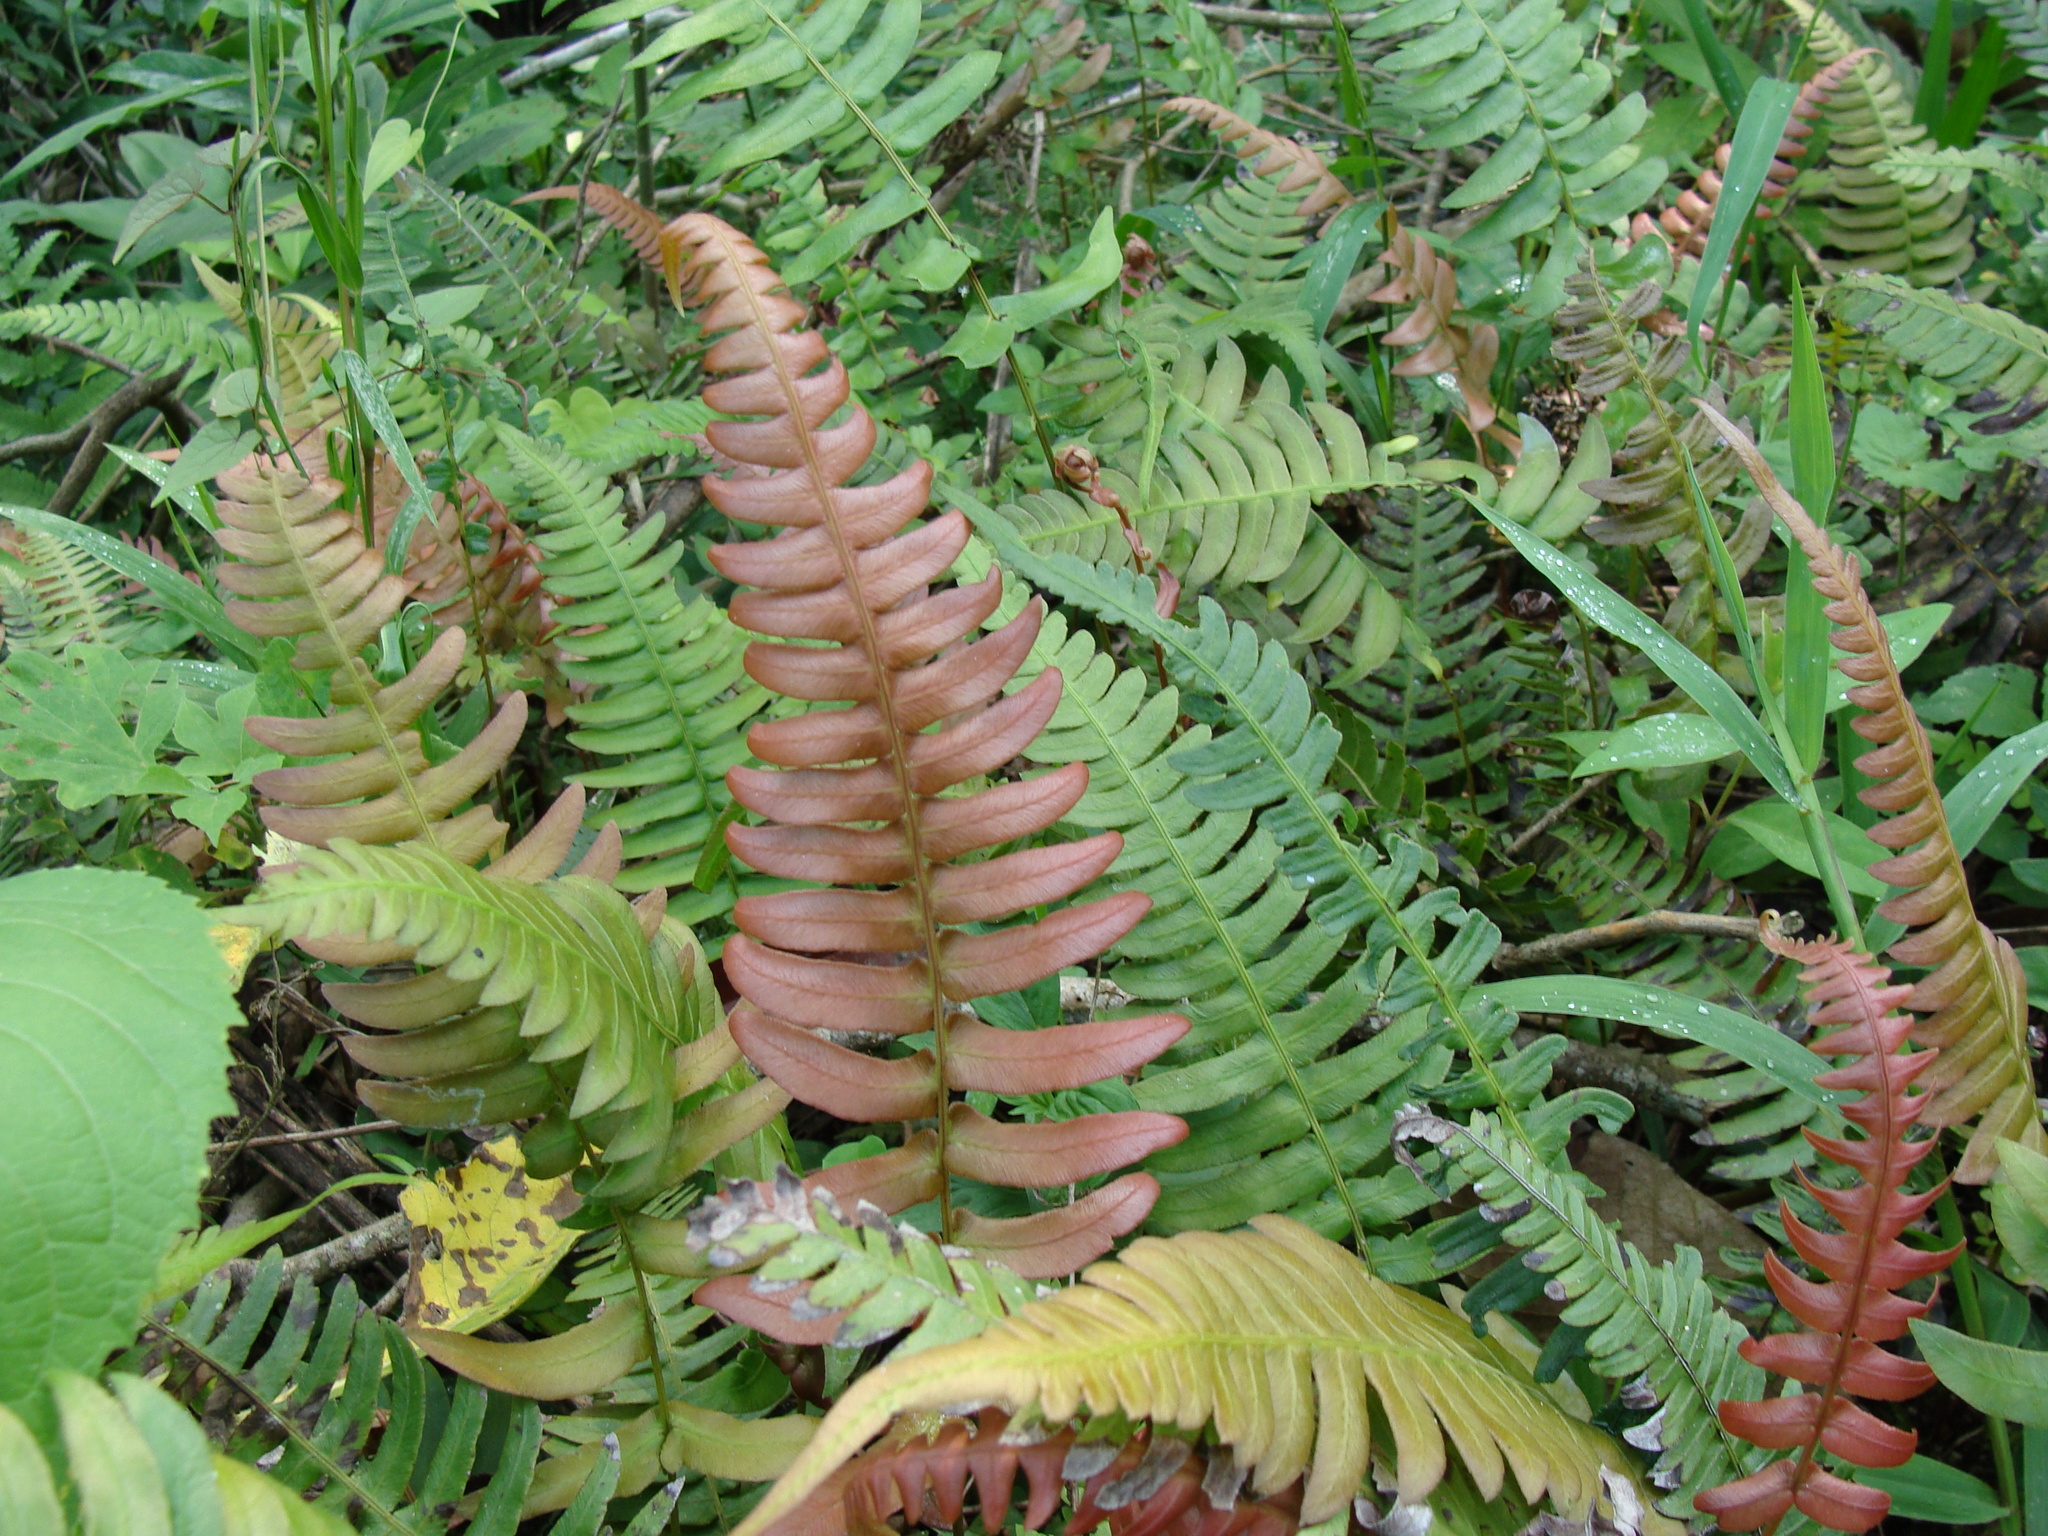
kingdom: Plantae
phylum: Tracheophyta
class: Polypodiopsida
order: Polypodiales
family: Blechnaceae
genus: Blechnum
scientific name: Blechnum occidentale
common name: Hammock fern
